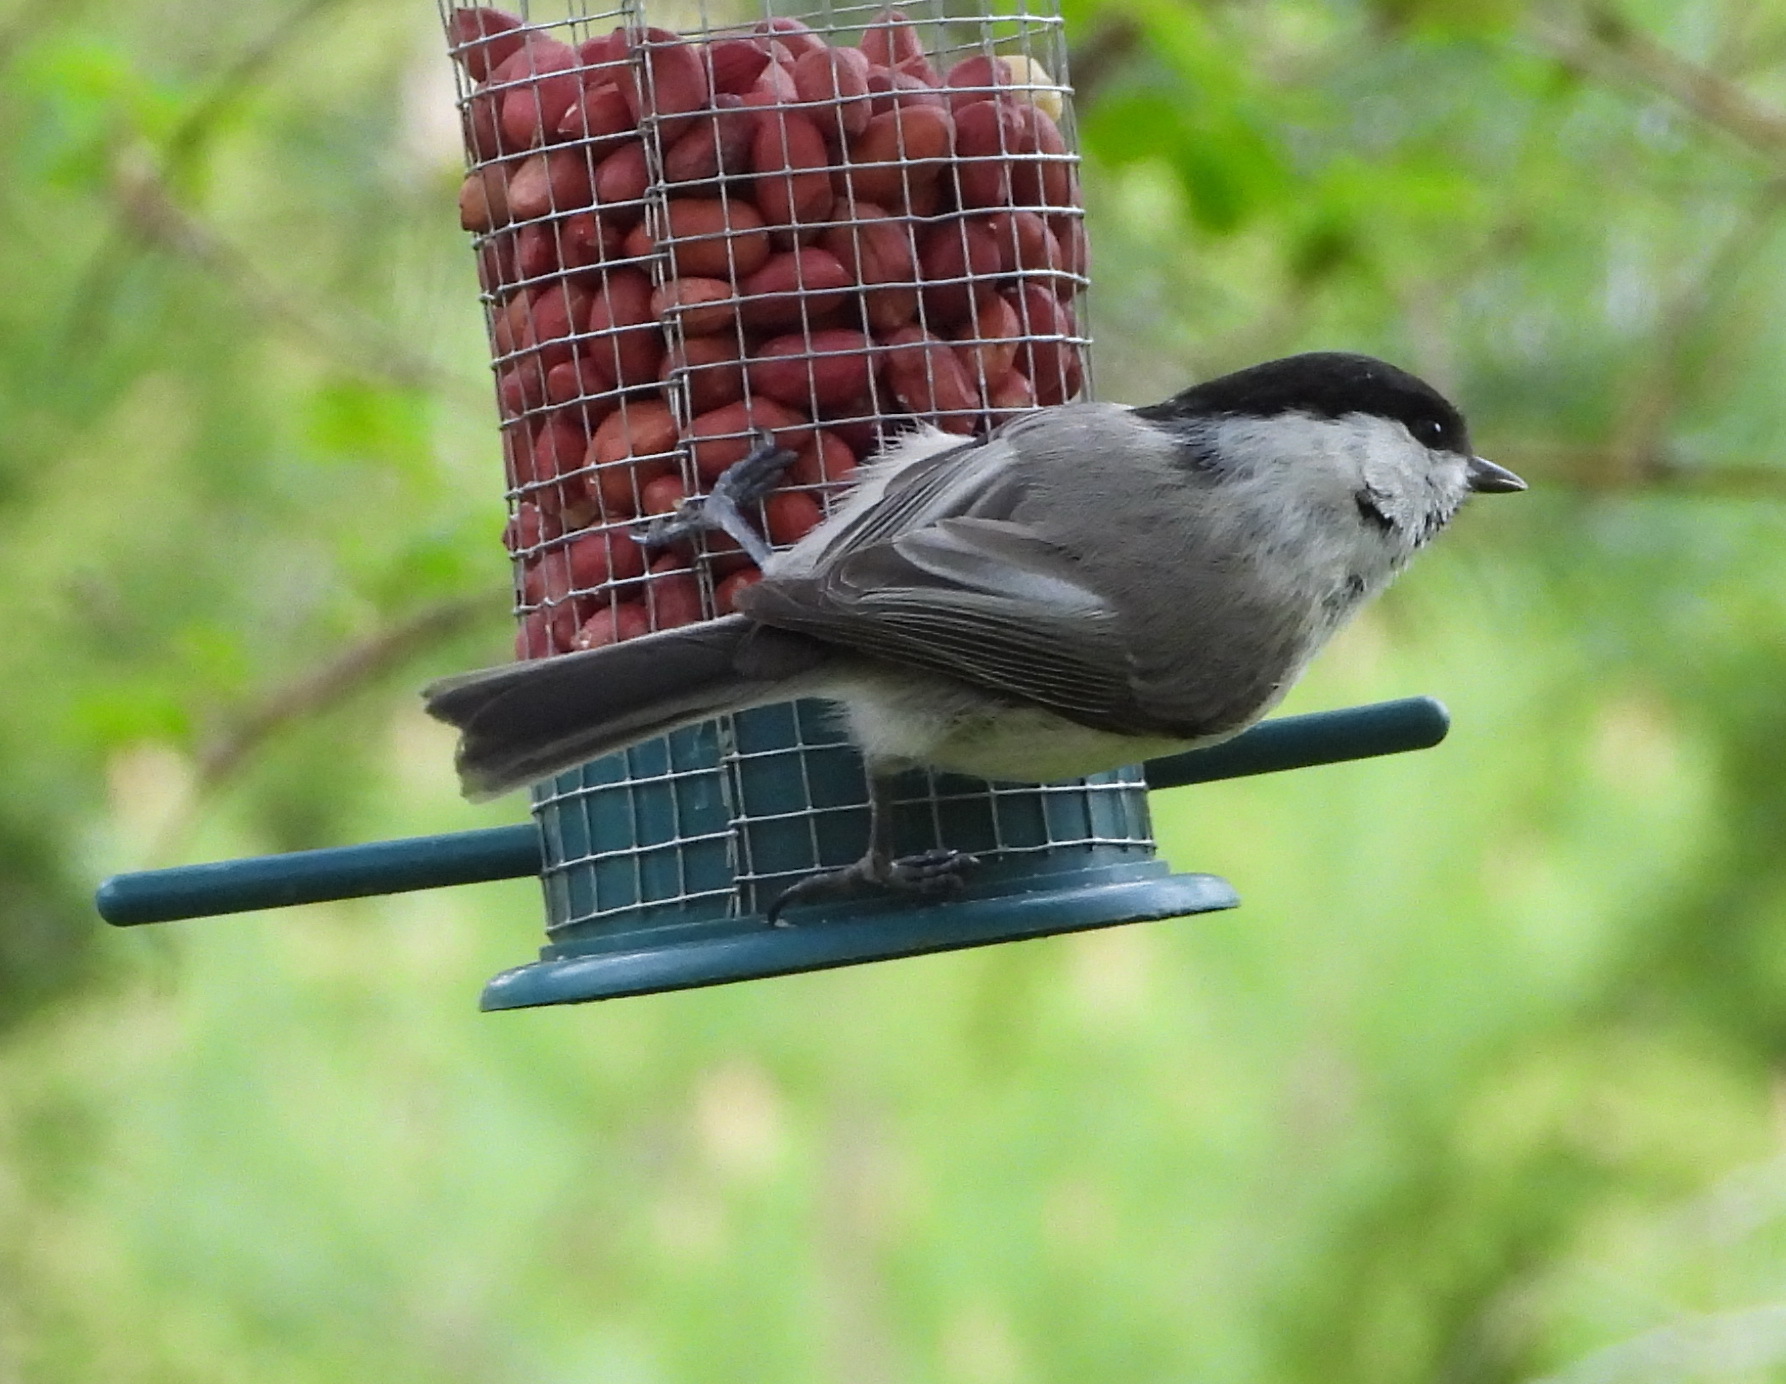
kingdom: Animalia
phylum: Chordata
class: Aves
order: Passeriformes
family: Paridae
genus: Poecile
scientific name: Poecile montanus
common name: Willow tit
